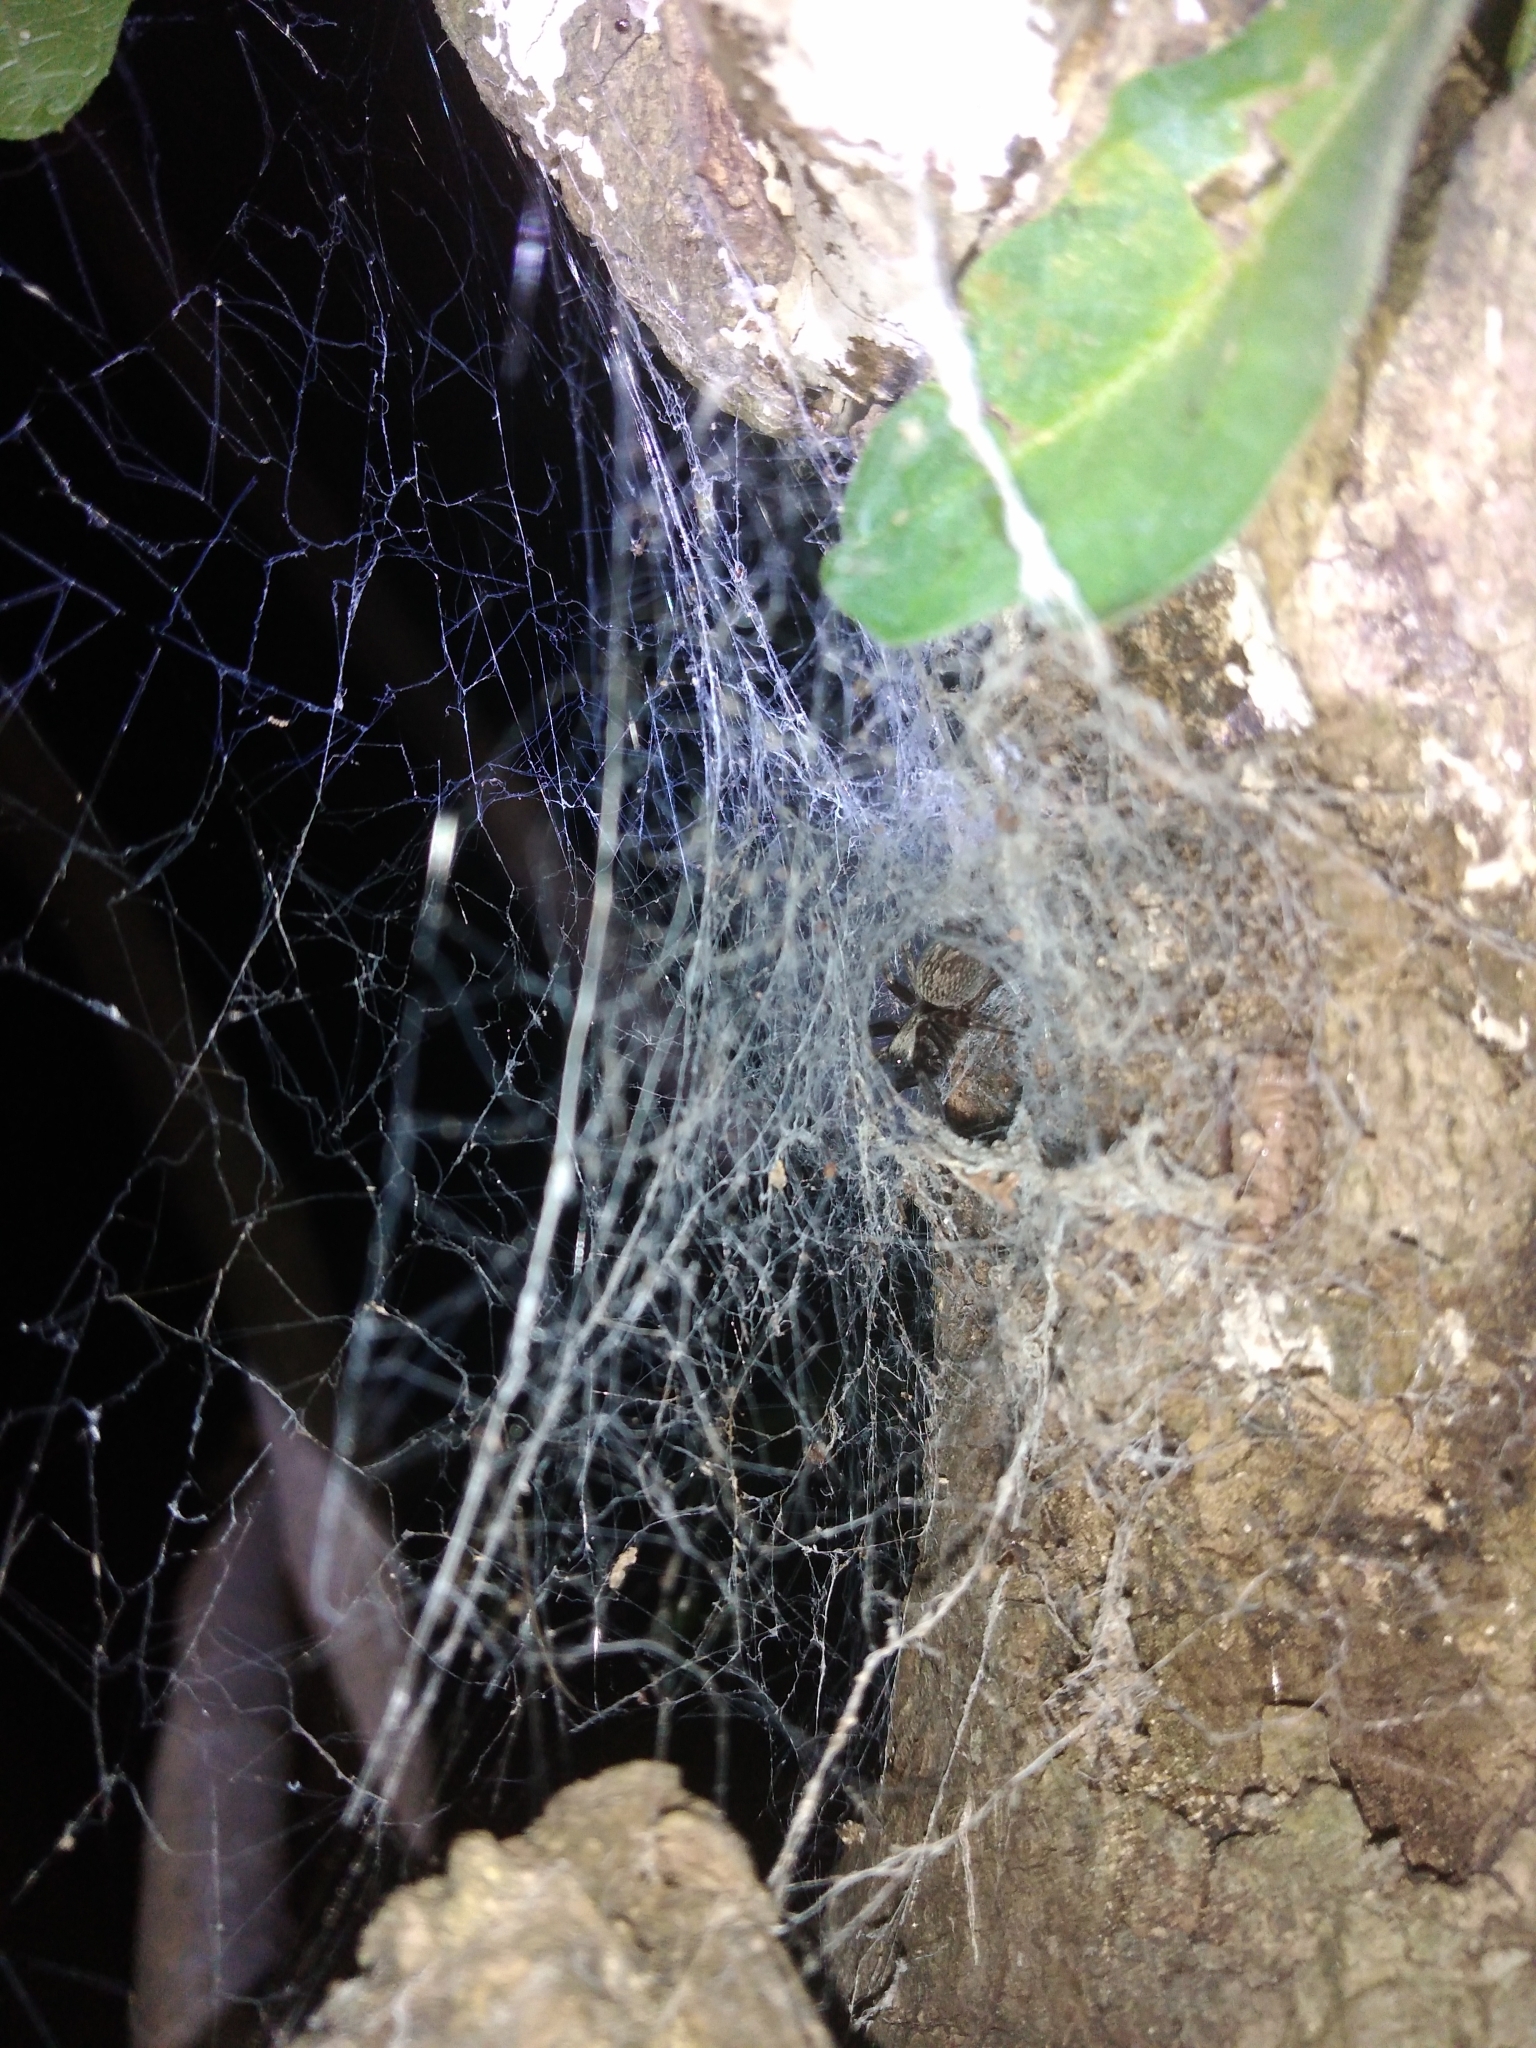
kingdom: Animalia
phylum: Arthropoda
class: Arachnida
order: Araneae
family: Desidae
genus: Badumna
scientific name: Badumna longinqua
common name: Gray house spider
